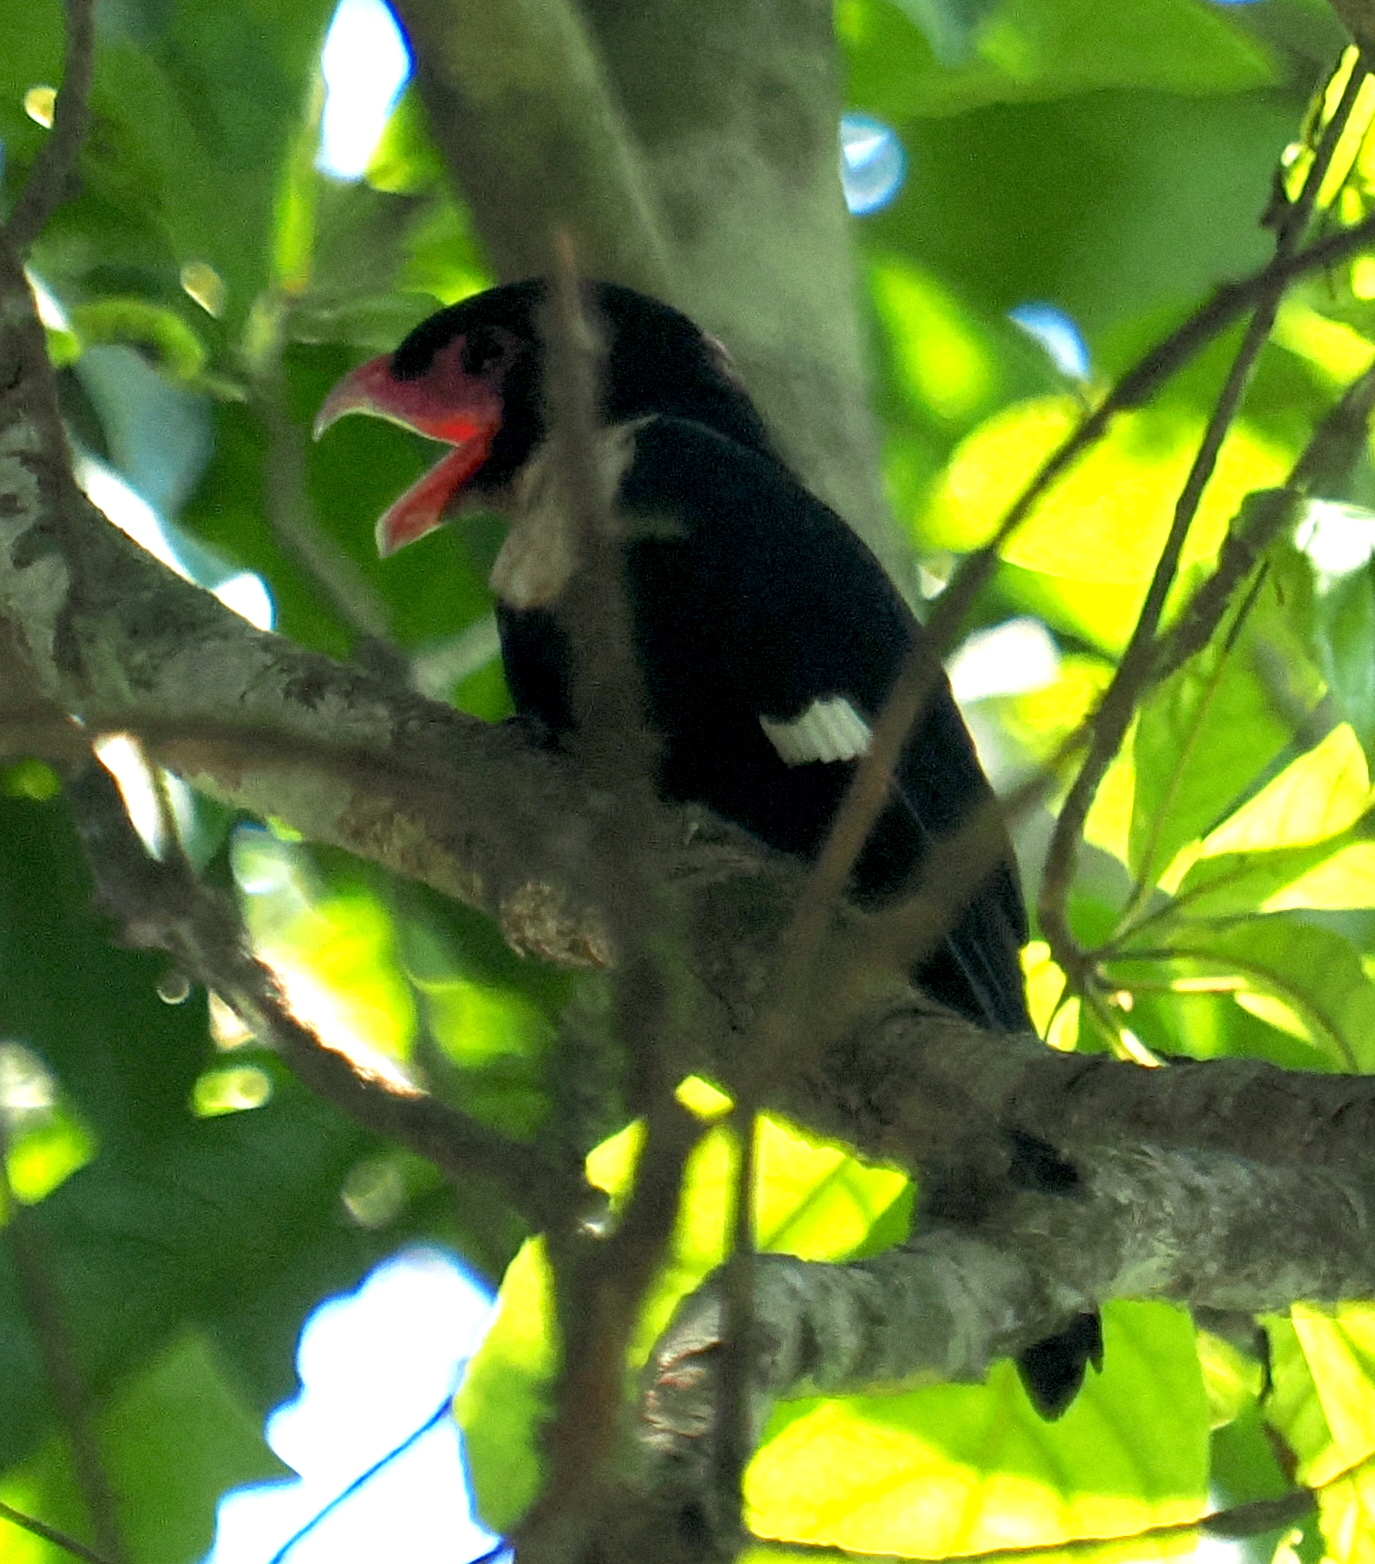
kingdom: Animalia
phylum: Chordata
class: Aves
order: Passeriformes
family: Eurylaimidae
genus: Corydon
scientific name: Corydon sumatranus
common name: Dusky broadbill
